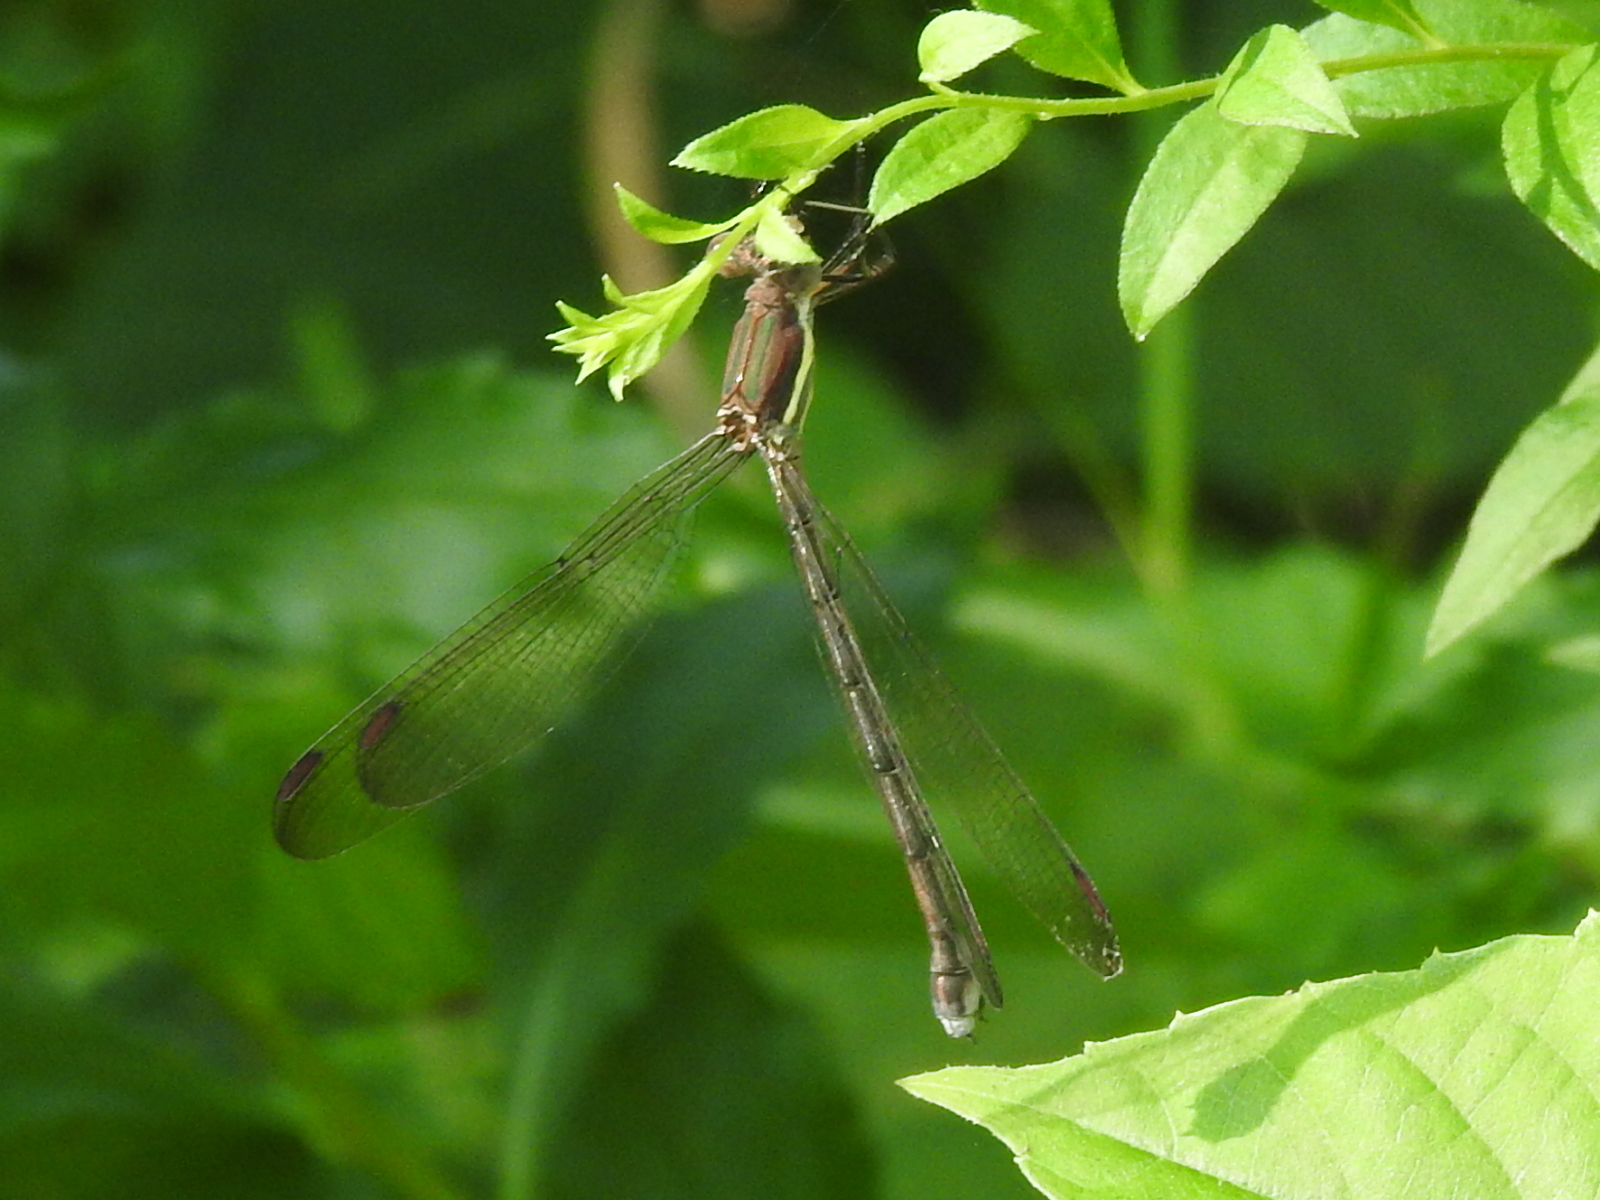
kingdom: Animalia
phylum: Arthropoda
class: Insecta
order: Odonata
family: Lestidae
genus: Archilestes
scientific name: Archilestes grandis
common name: Great spreadwing
